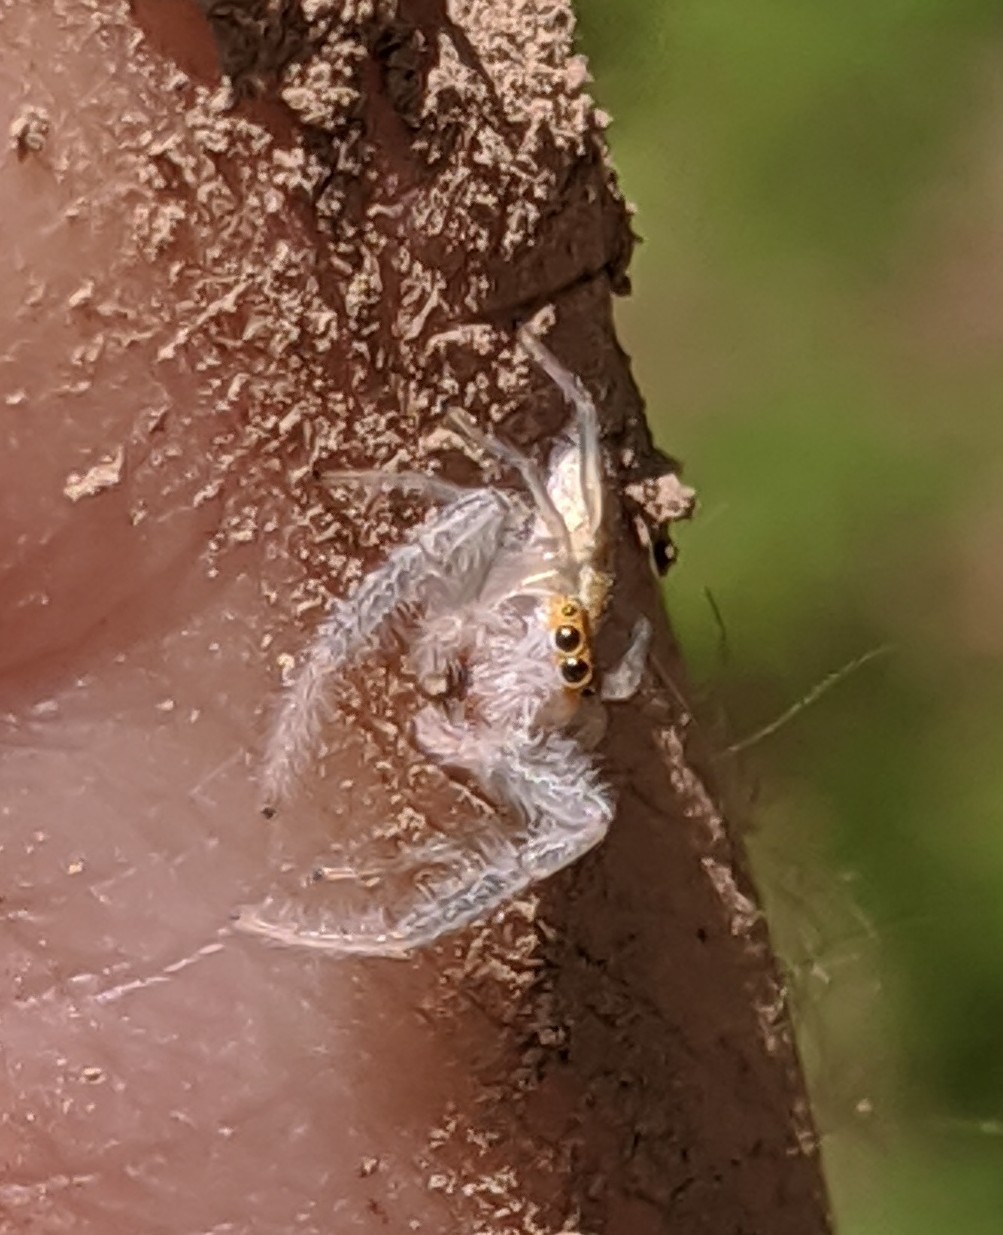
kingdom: Animalia
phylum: Arthropoda
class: Arachnida
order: Araneae
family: Salticidae
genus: Hentzia
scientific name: Hentzia mitrata
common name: White-jawed jumping spider
